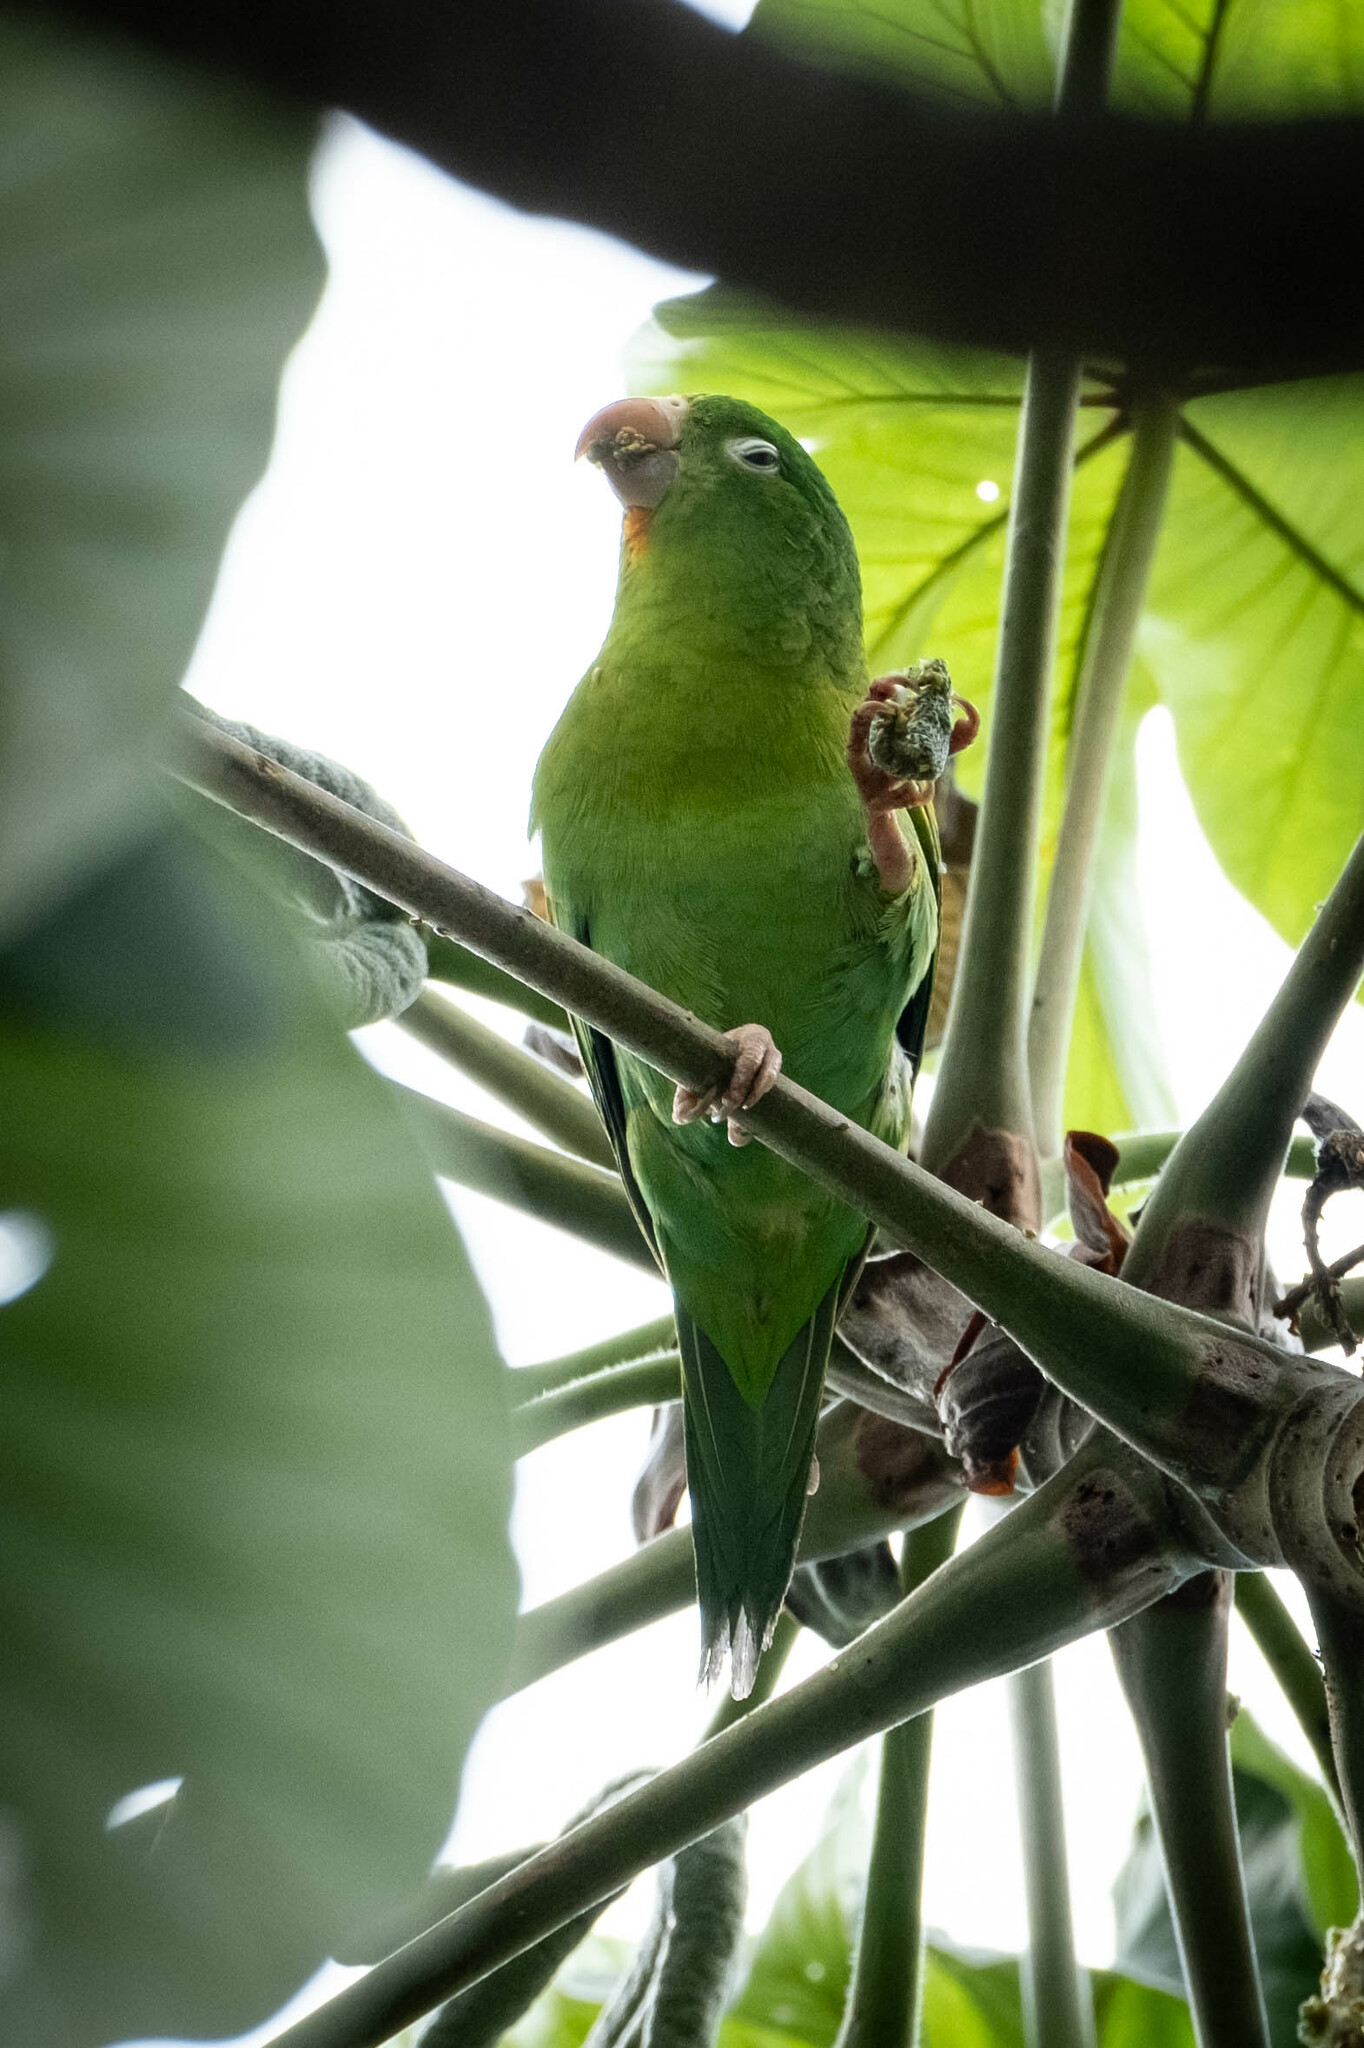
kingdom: Animalia
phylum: Chordata
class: Aves
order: Psittaciformes
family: Psittacidae
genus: Brotogeris
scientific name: Brotogeris jugularis
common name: Orange-chinned parakeet
